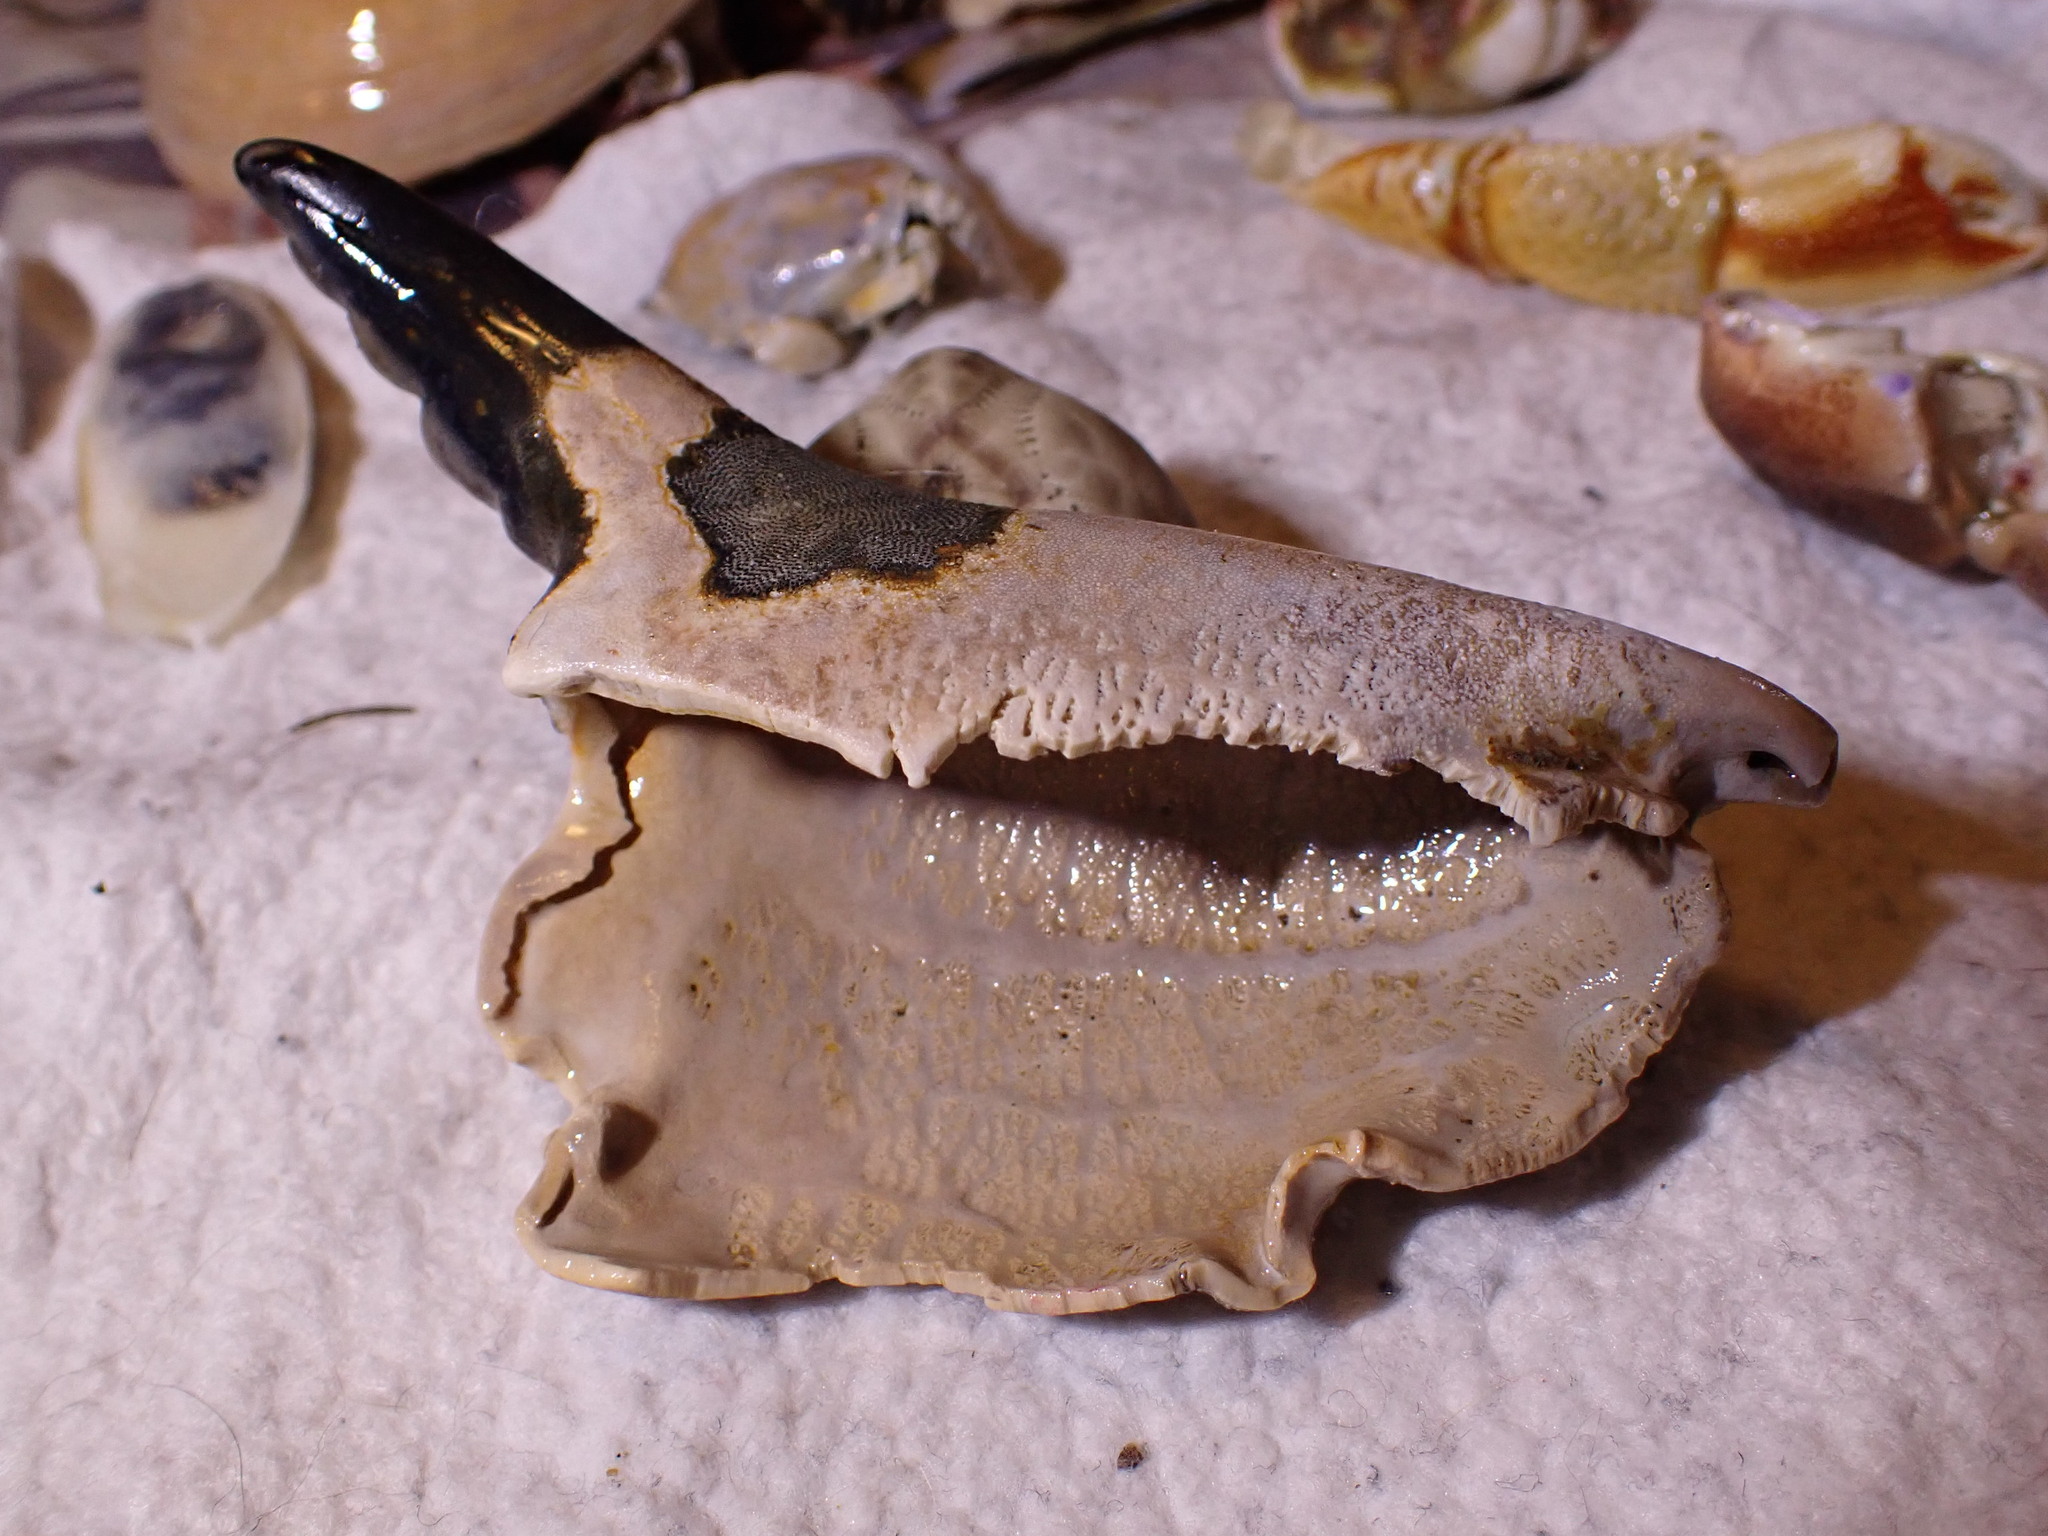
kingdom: Animalia
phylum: Arthropoda
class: Malacostraca
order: Decapoda
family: Cancridae
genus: Cancer
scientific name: Cancer pagurus
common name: Edible crab
